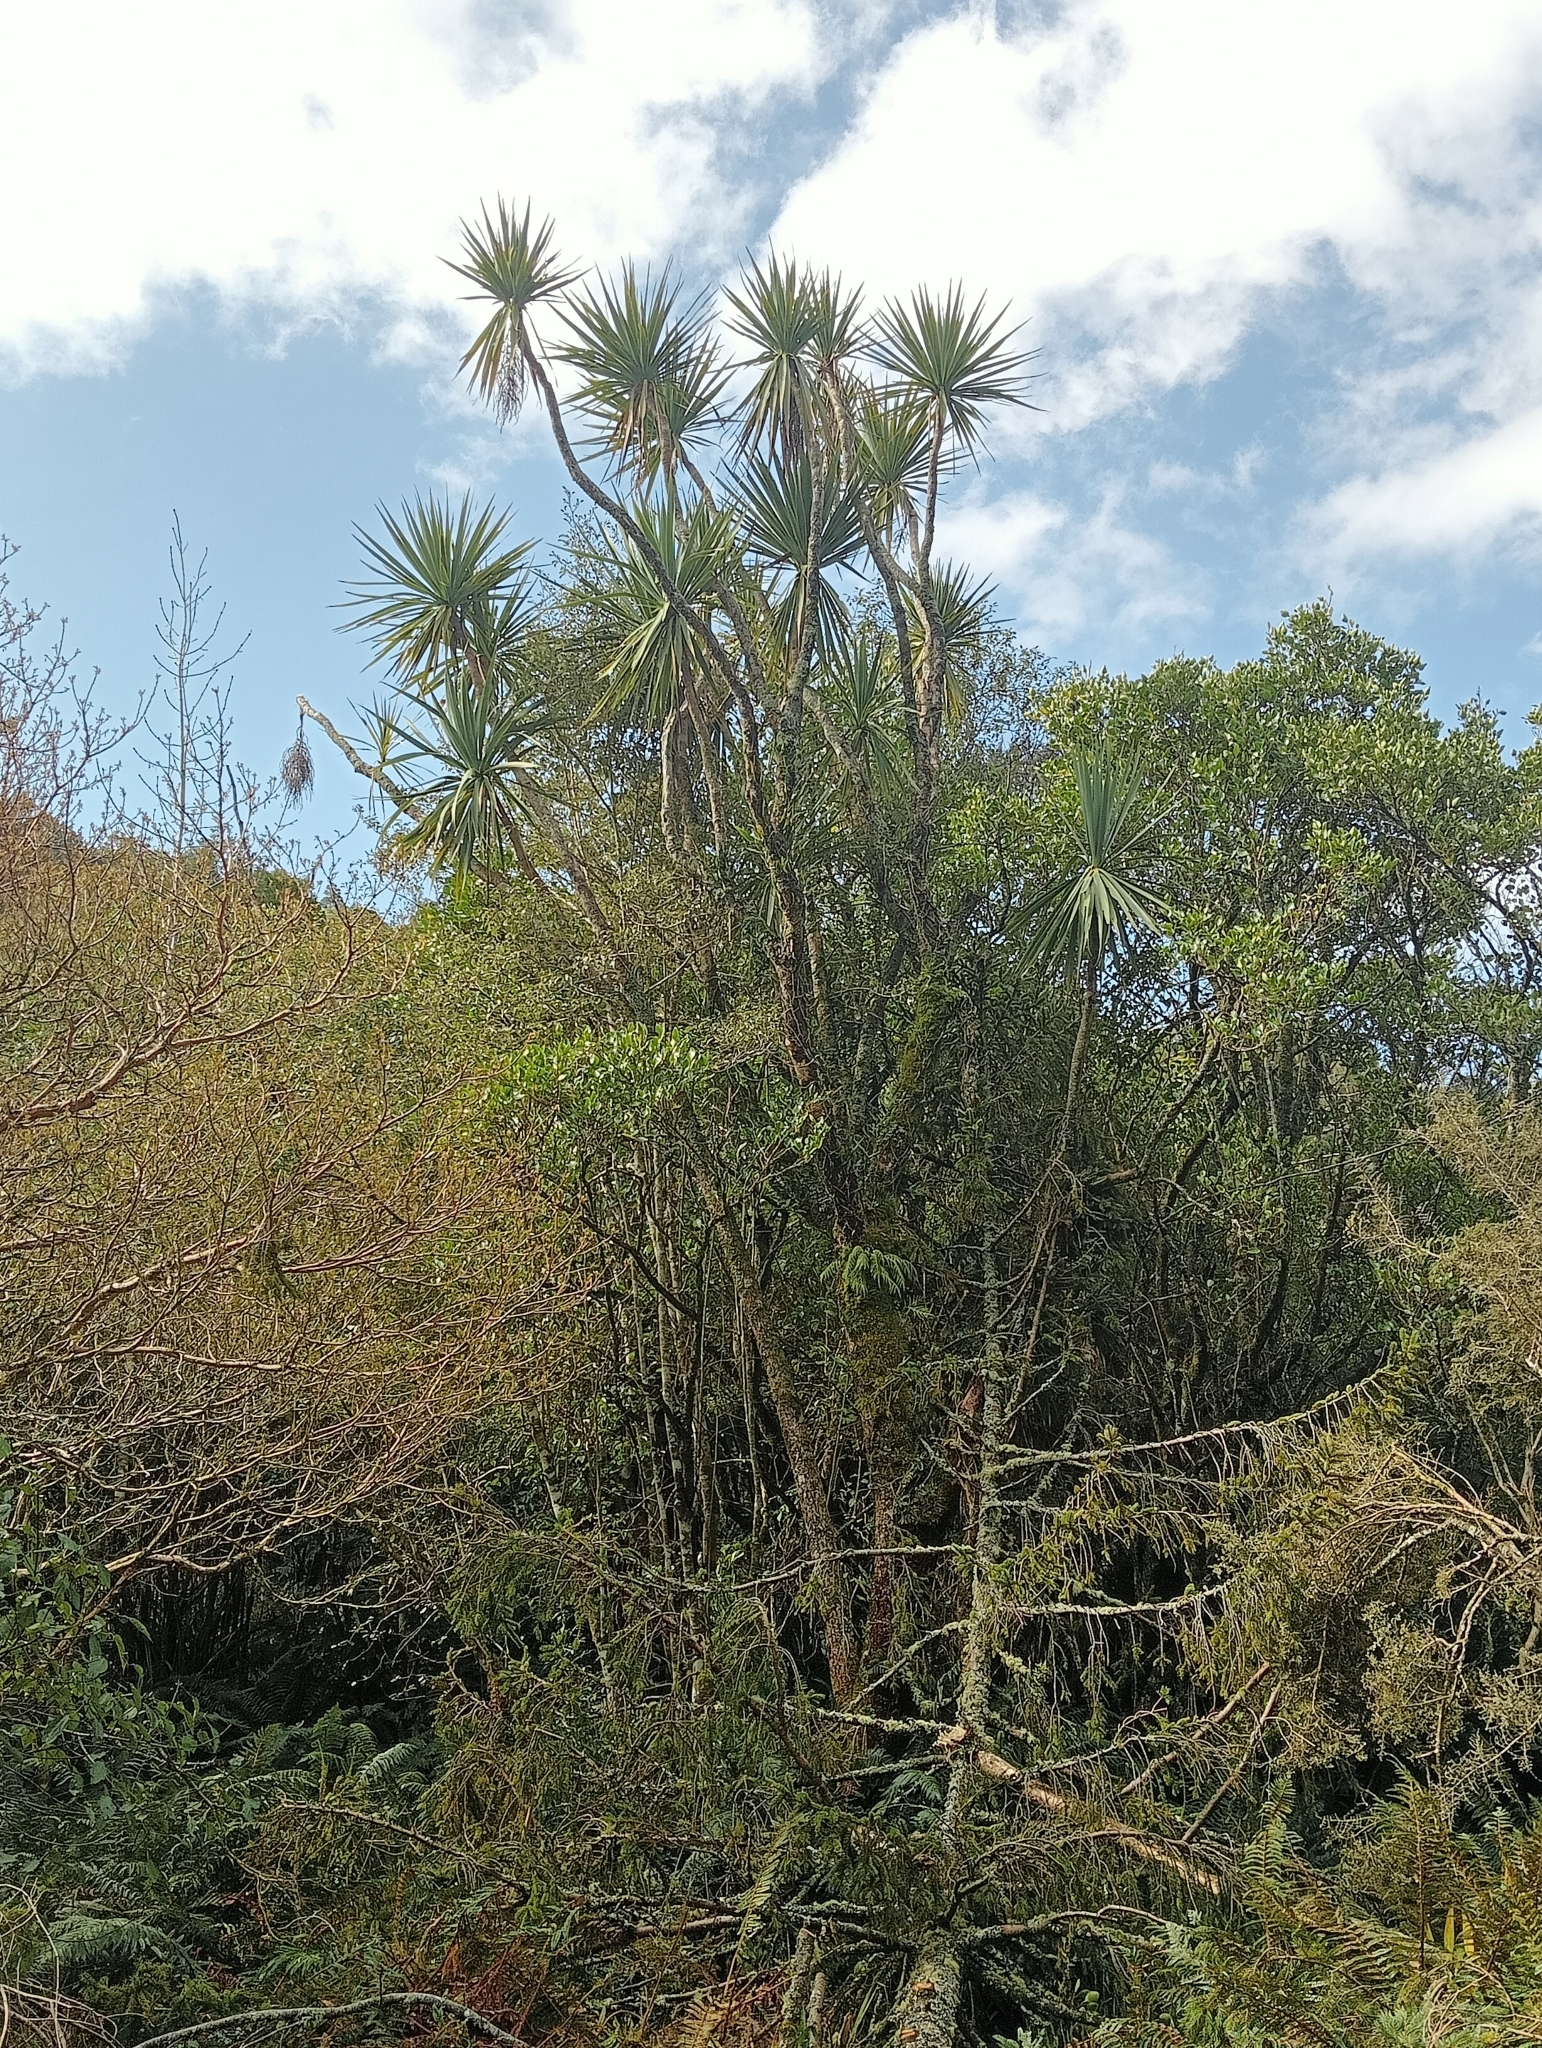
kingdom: Plantae
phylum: Tracheophyta
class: Liliopsida
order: Asparagales
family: Asparagaceae
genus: Cordyline
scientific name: Cordyline australis
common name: Cabbage-palm
